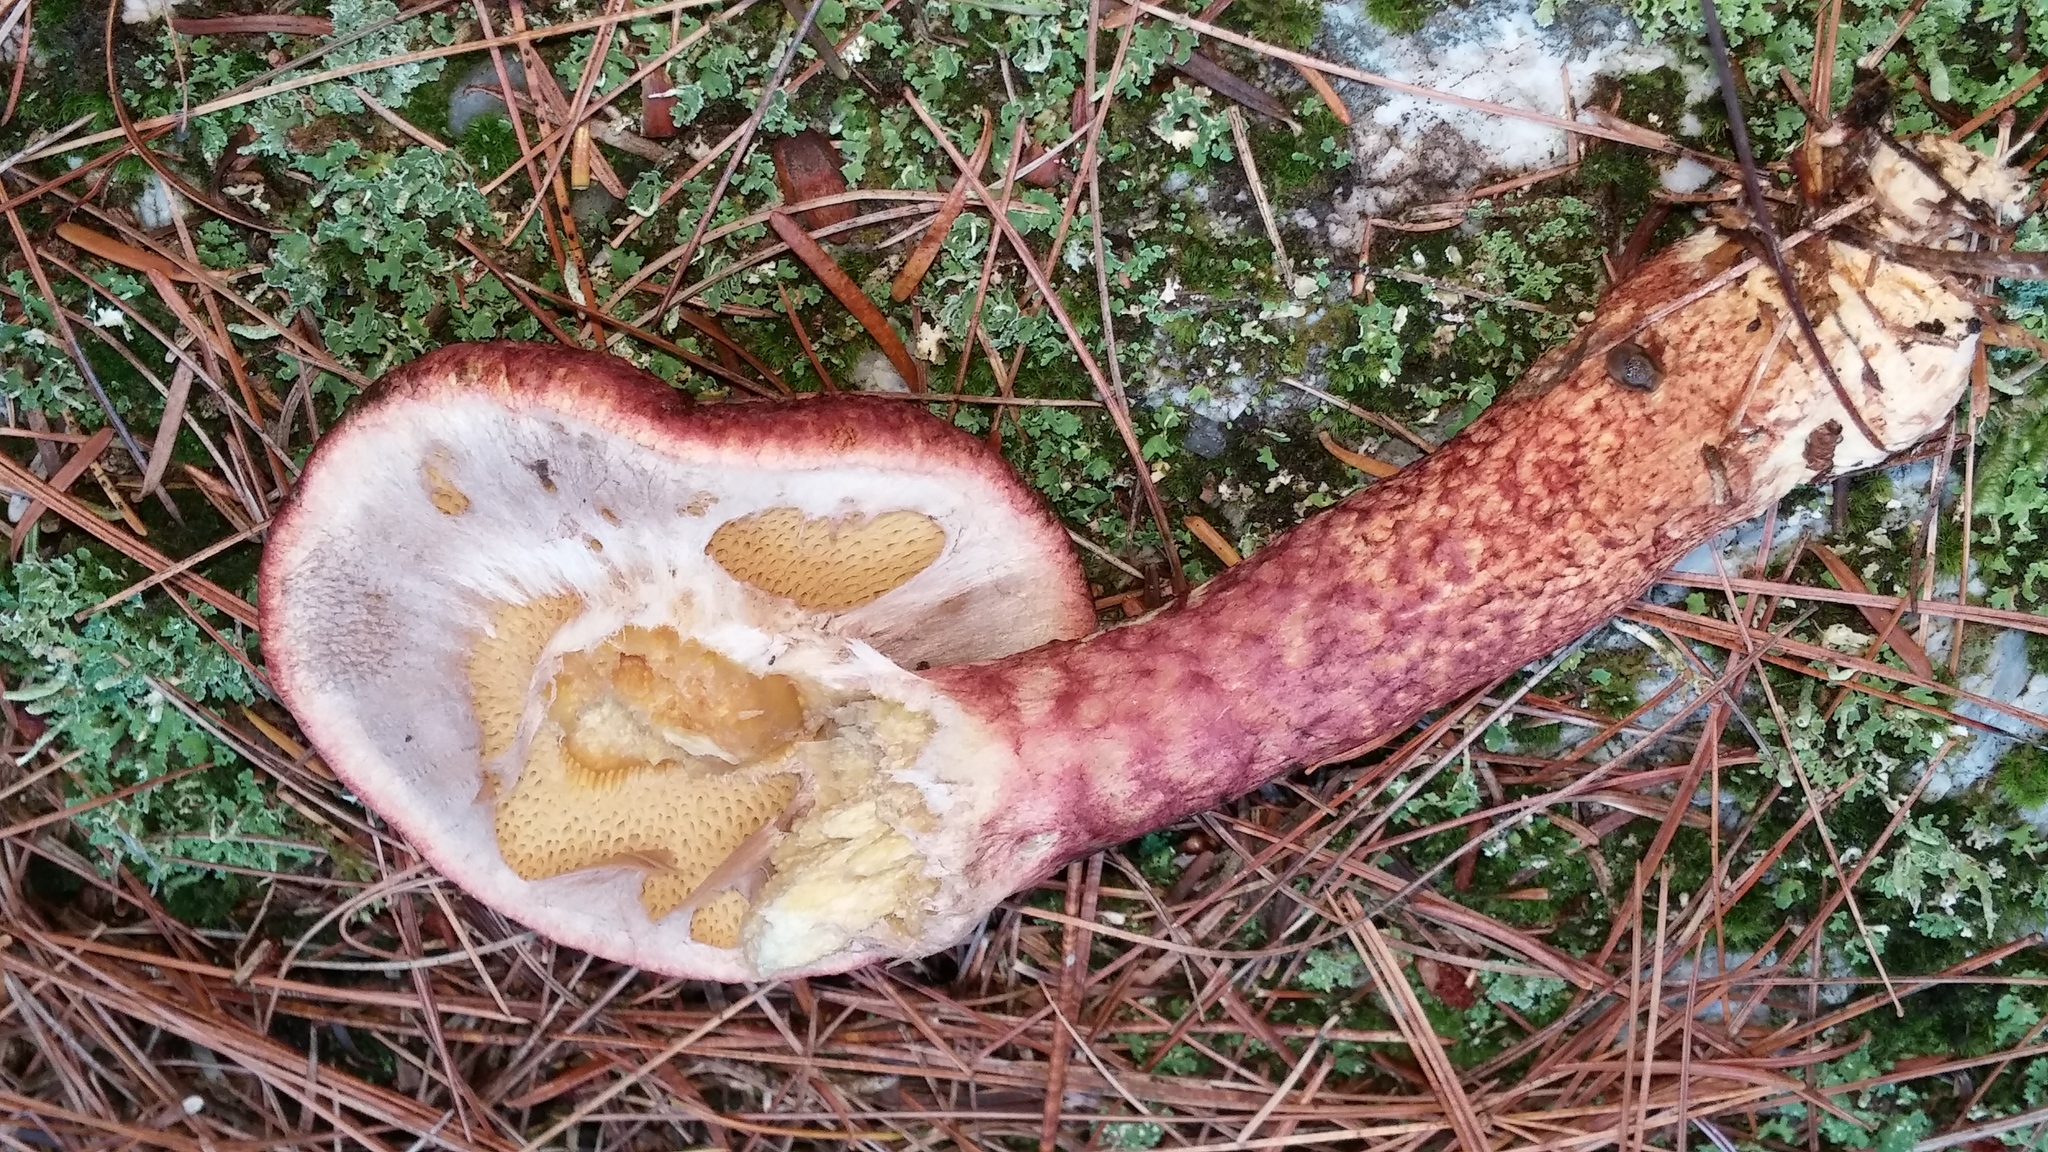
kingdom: Fungi
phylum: Basidiomycota
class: Agaricomycetes
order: Boletales
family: Suillaceae
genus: Suillus
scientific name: Suillus spraguei
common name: Painted suillus
